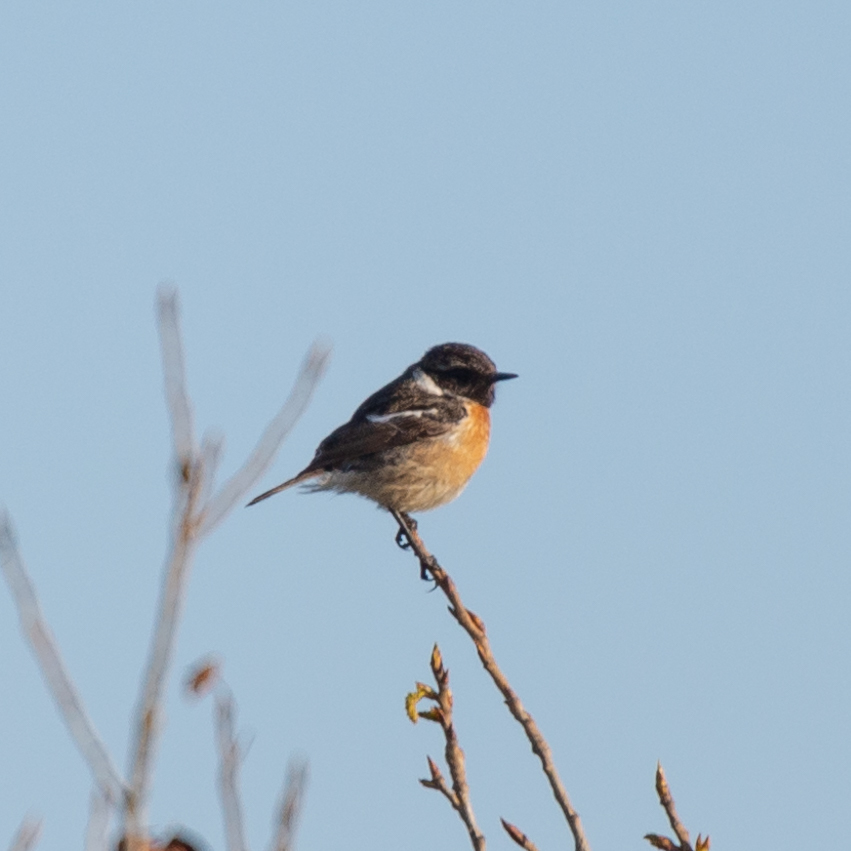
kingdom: Animalia
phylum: Chordata
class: Aves
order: Passeriformes
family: Muscicapidae
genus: Saxicola
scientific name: Saxicola rubicola
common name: European stonechat
